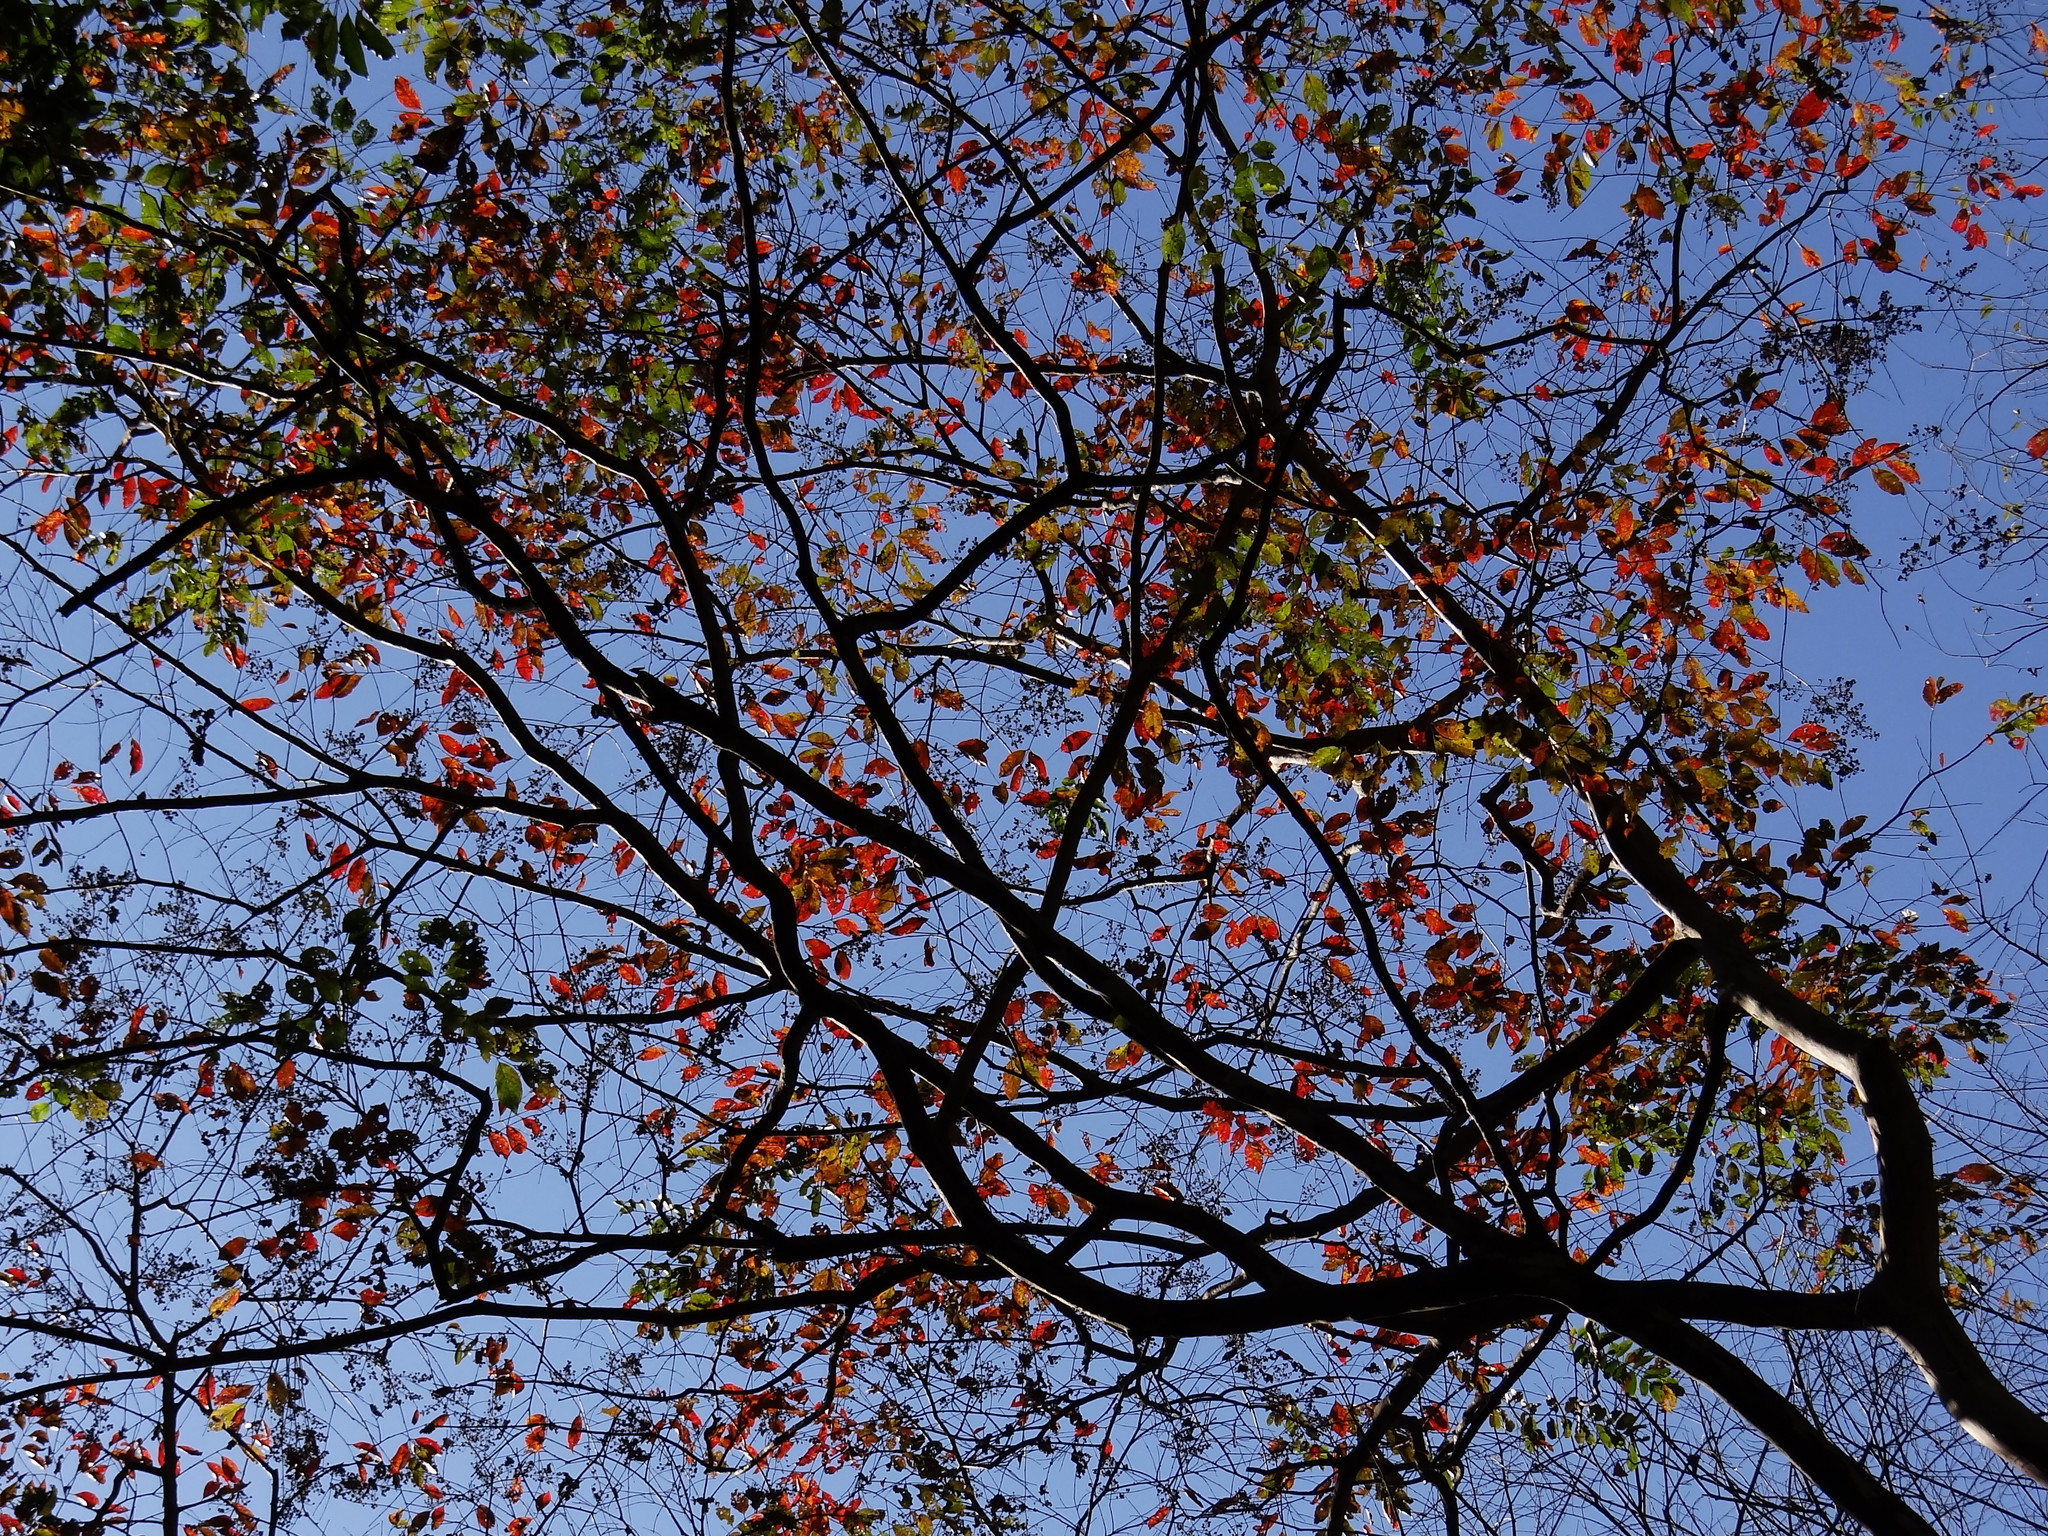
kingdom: Plantae
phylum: Tracheophyta
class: Magnoliopsida
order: Myrtales
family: Lythraceae
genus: Lagerstroemia
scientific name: Lagerstroemia subcostata
